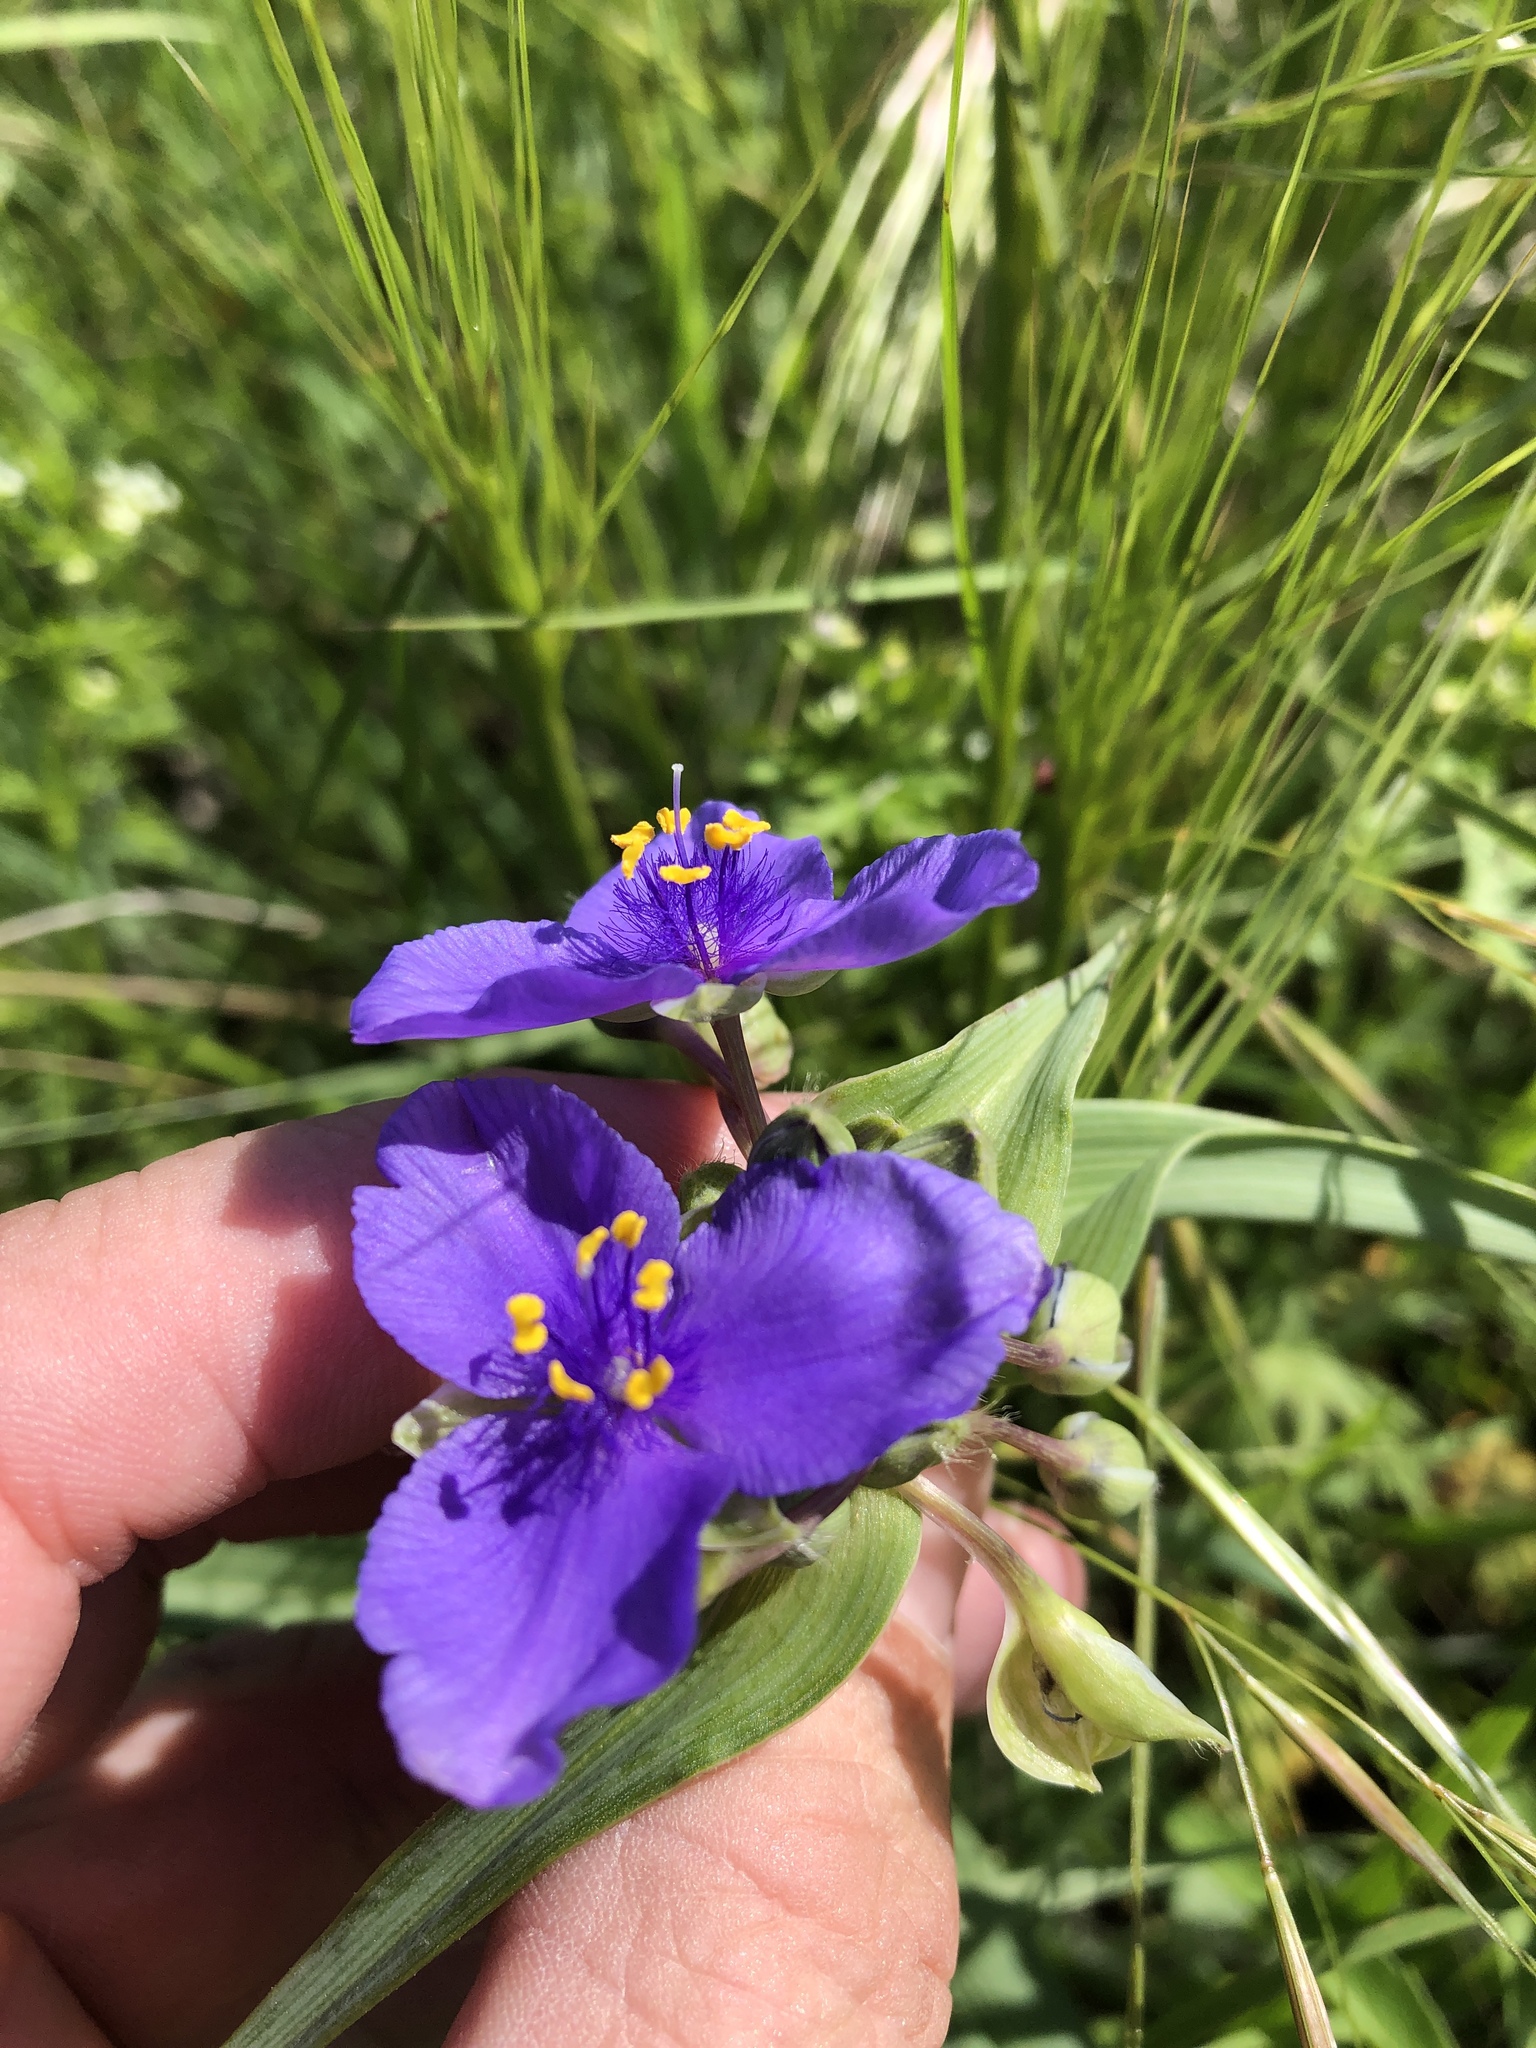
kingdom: Plantae
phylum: Tracheophyta
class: Liliopsida
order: Commelinales
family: Commelinaceae
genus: Tradescantia
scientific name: Tradescantia ohiensis
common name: Ohio spiderwort
